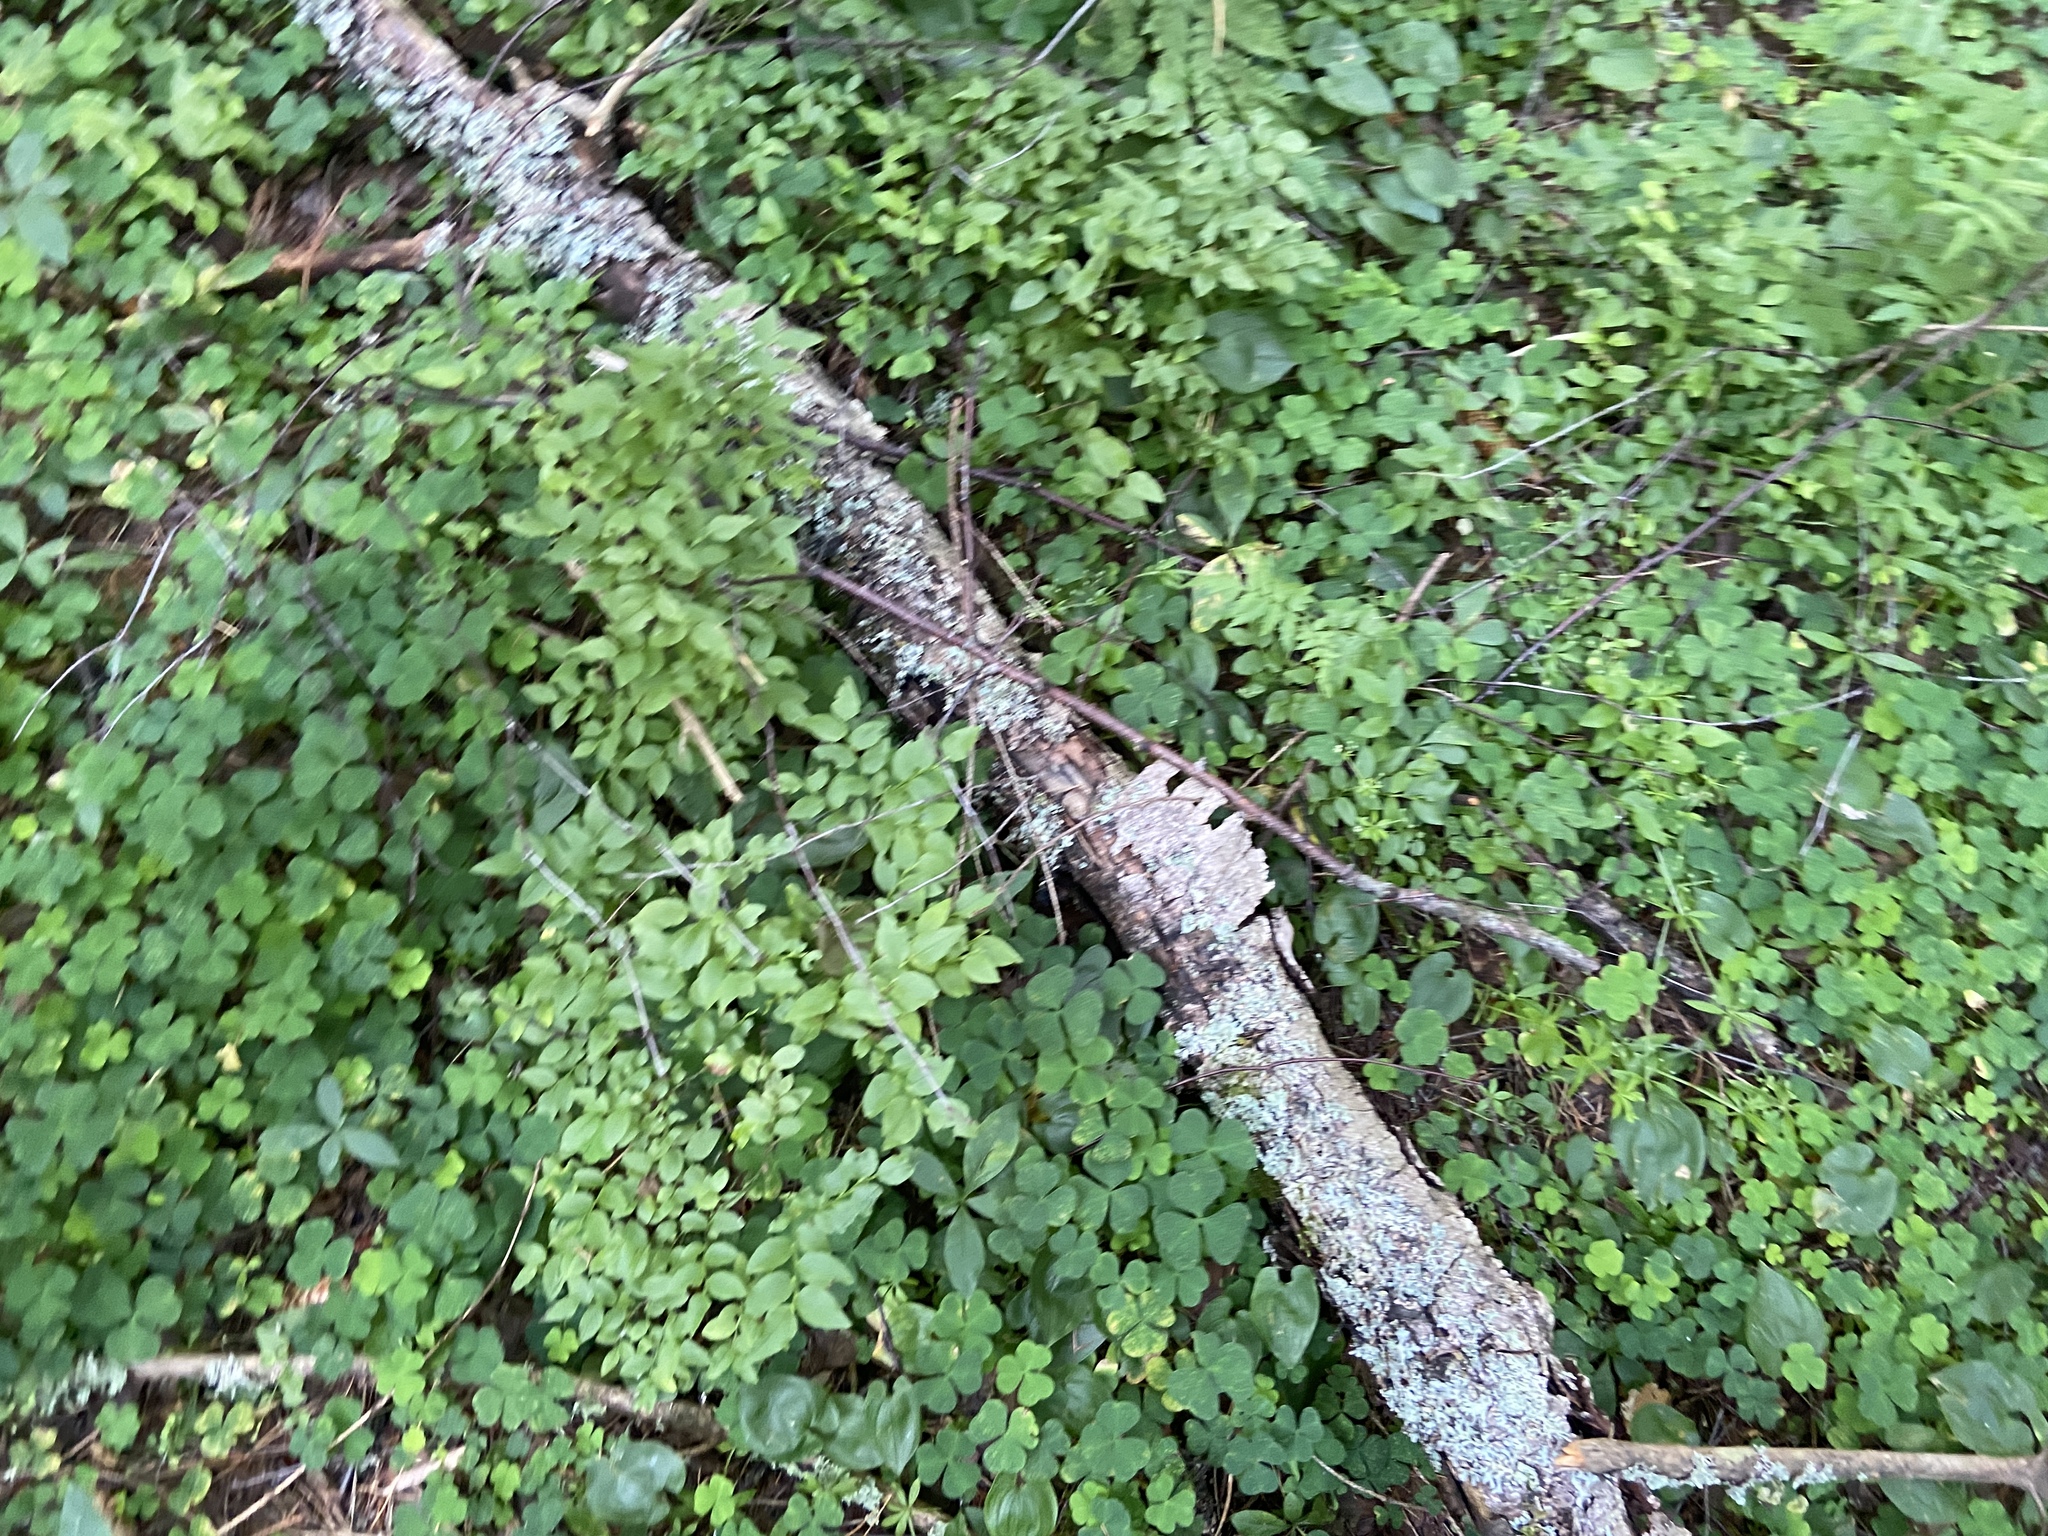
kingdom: Plantae
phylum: Tracheophyta
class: Magnoliopsida
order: Ericales
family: Ericaceae
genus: Vaccinium
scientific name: Vaccinium myrtillus
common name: Bilberry
